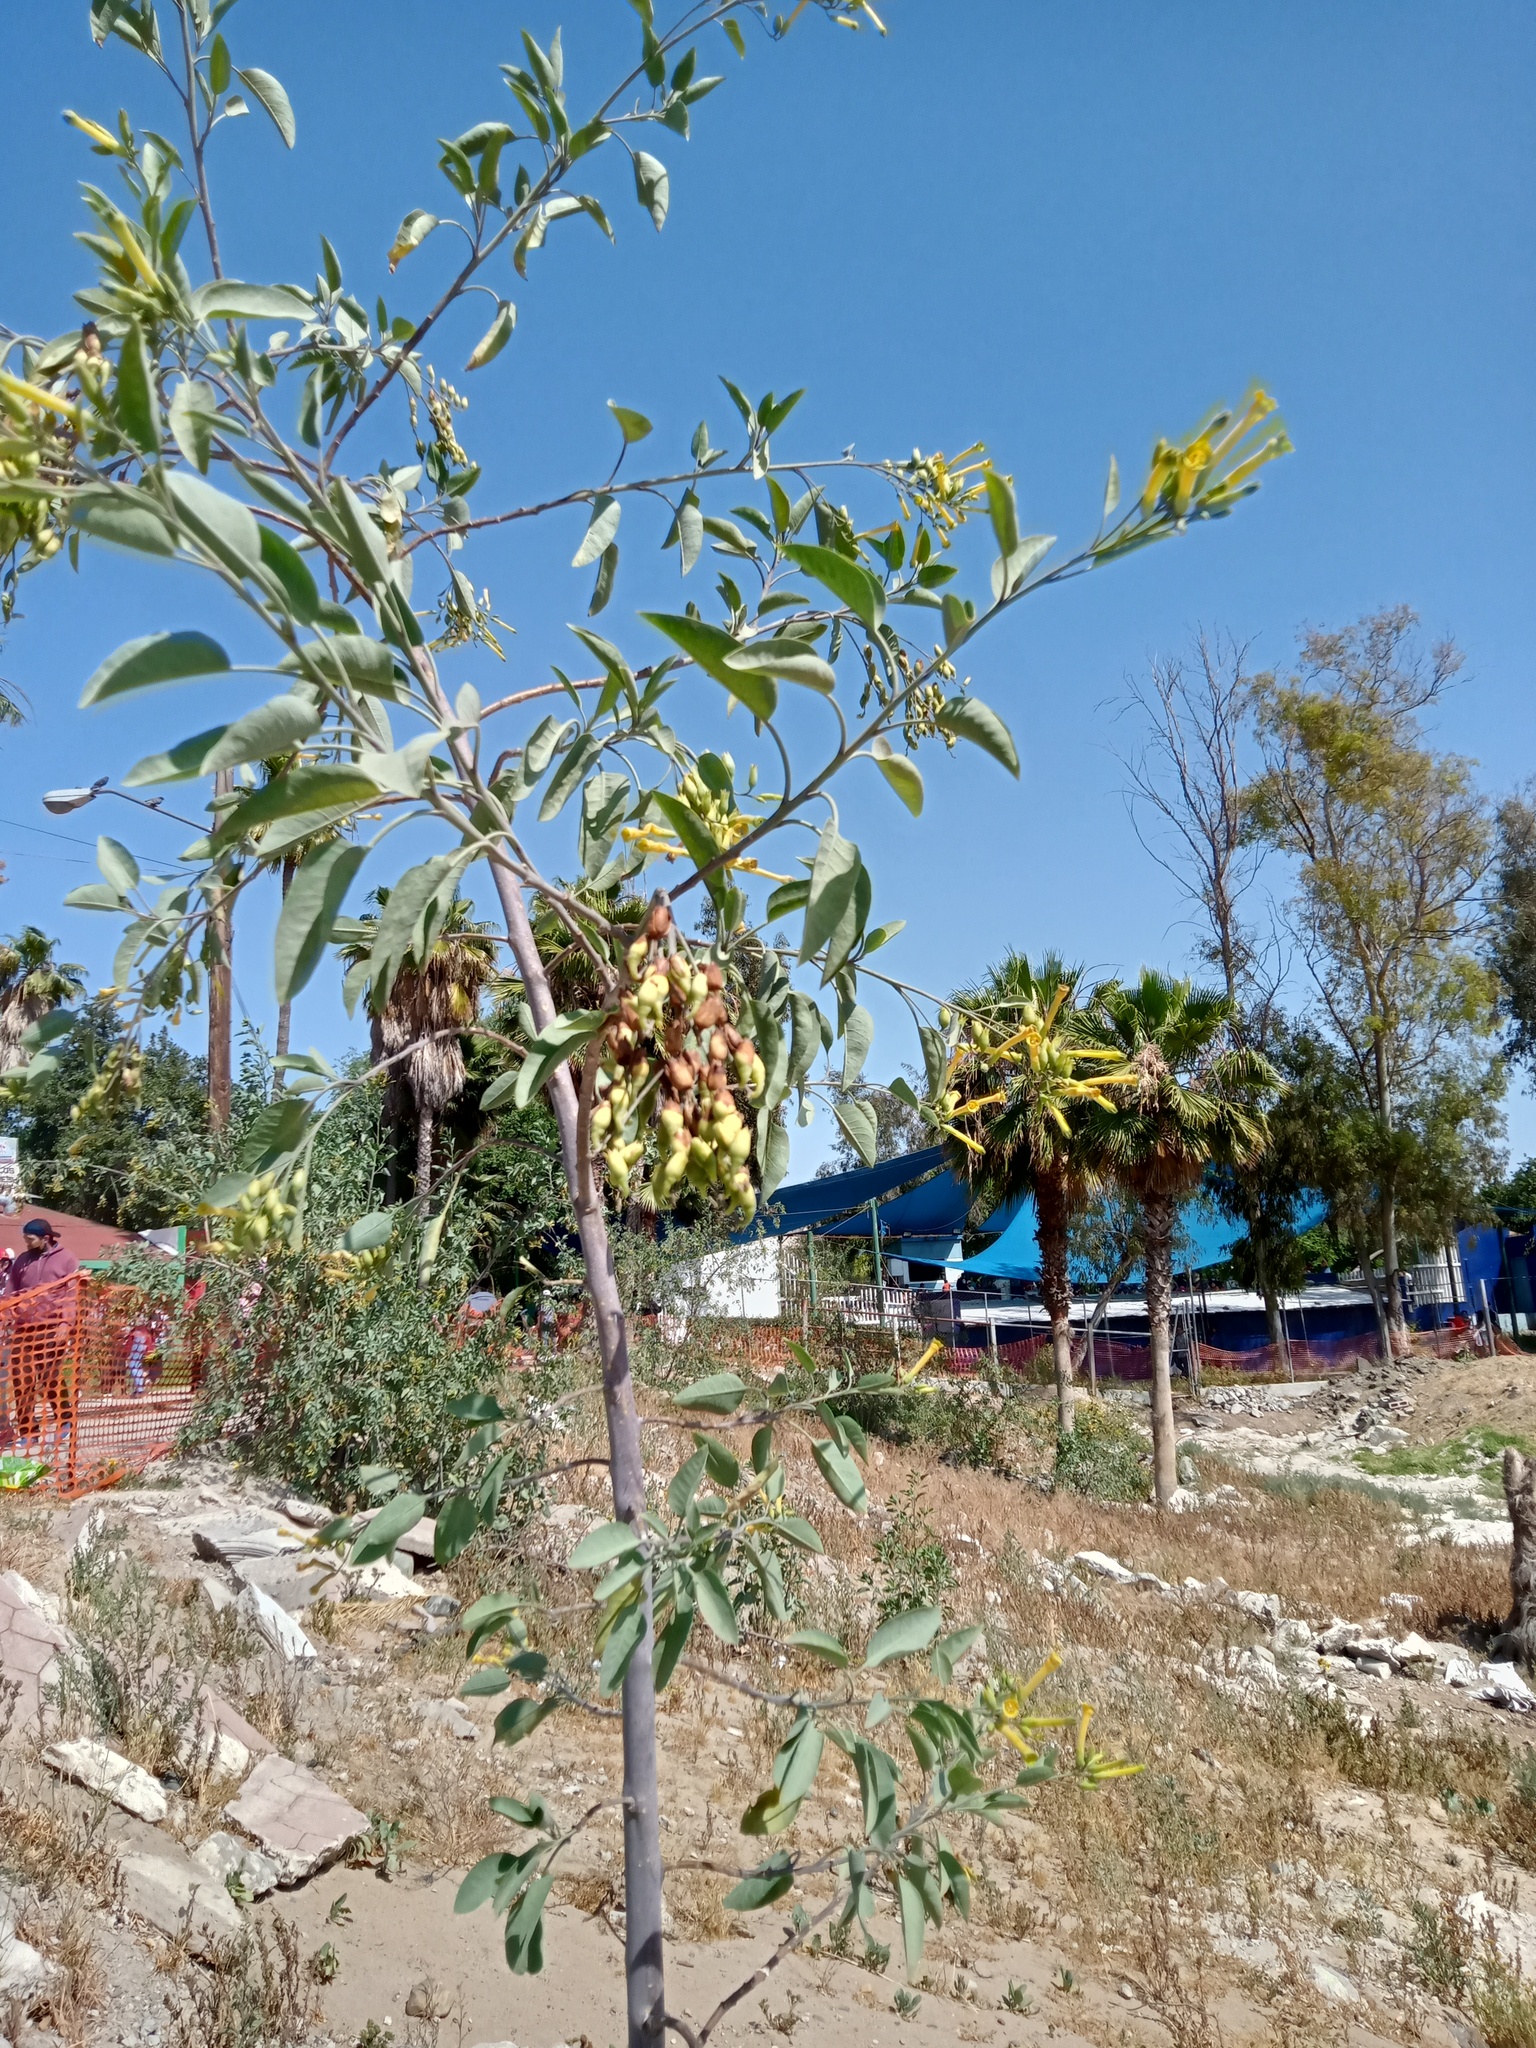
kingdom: Plantae
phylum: Tracheophyta
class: Magnoliopsida
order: Solanales
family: Solanaceae
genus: Nicotiana
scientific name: Nicotiana glauca
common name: Tree tobacco
